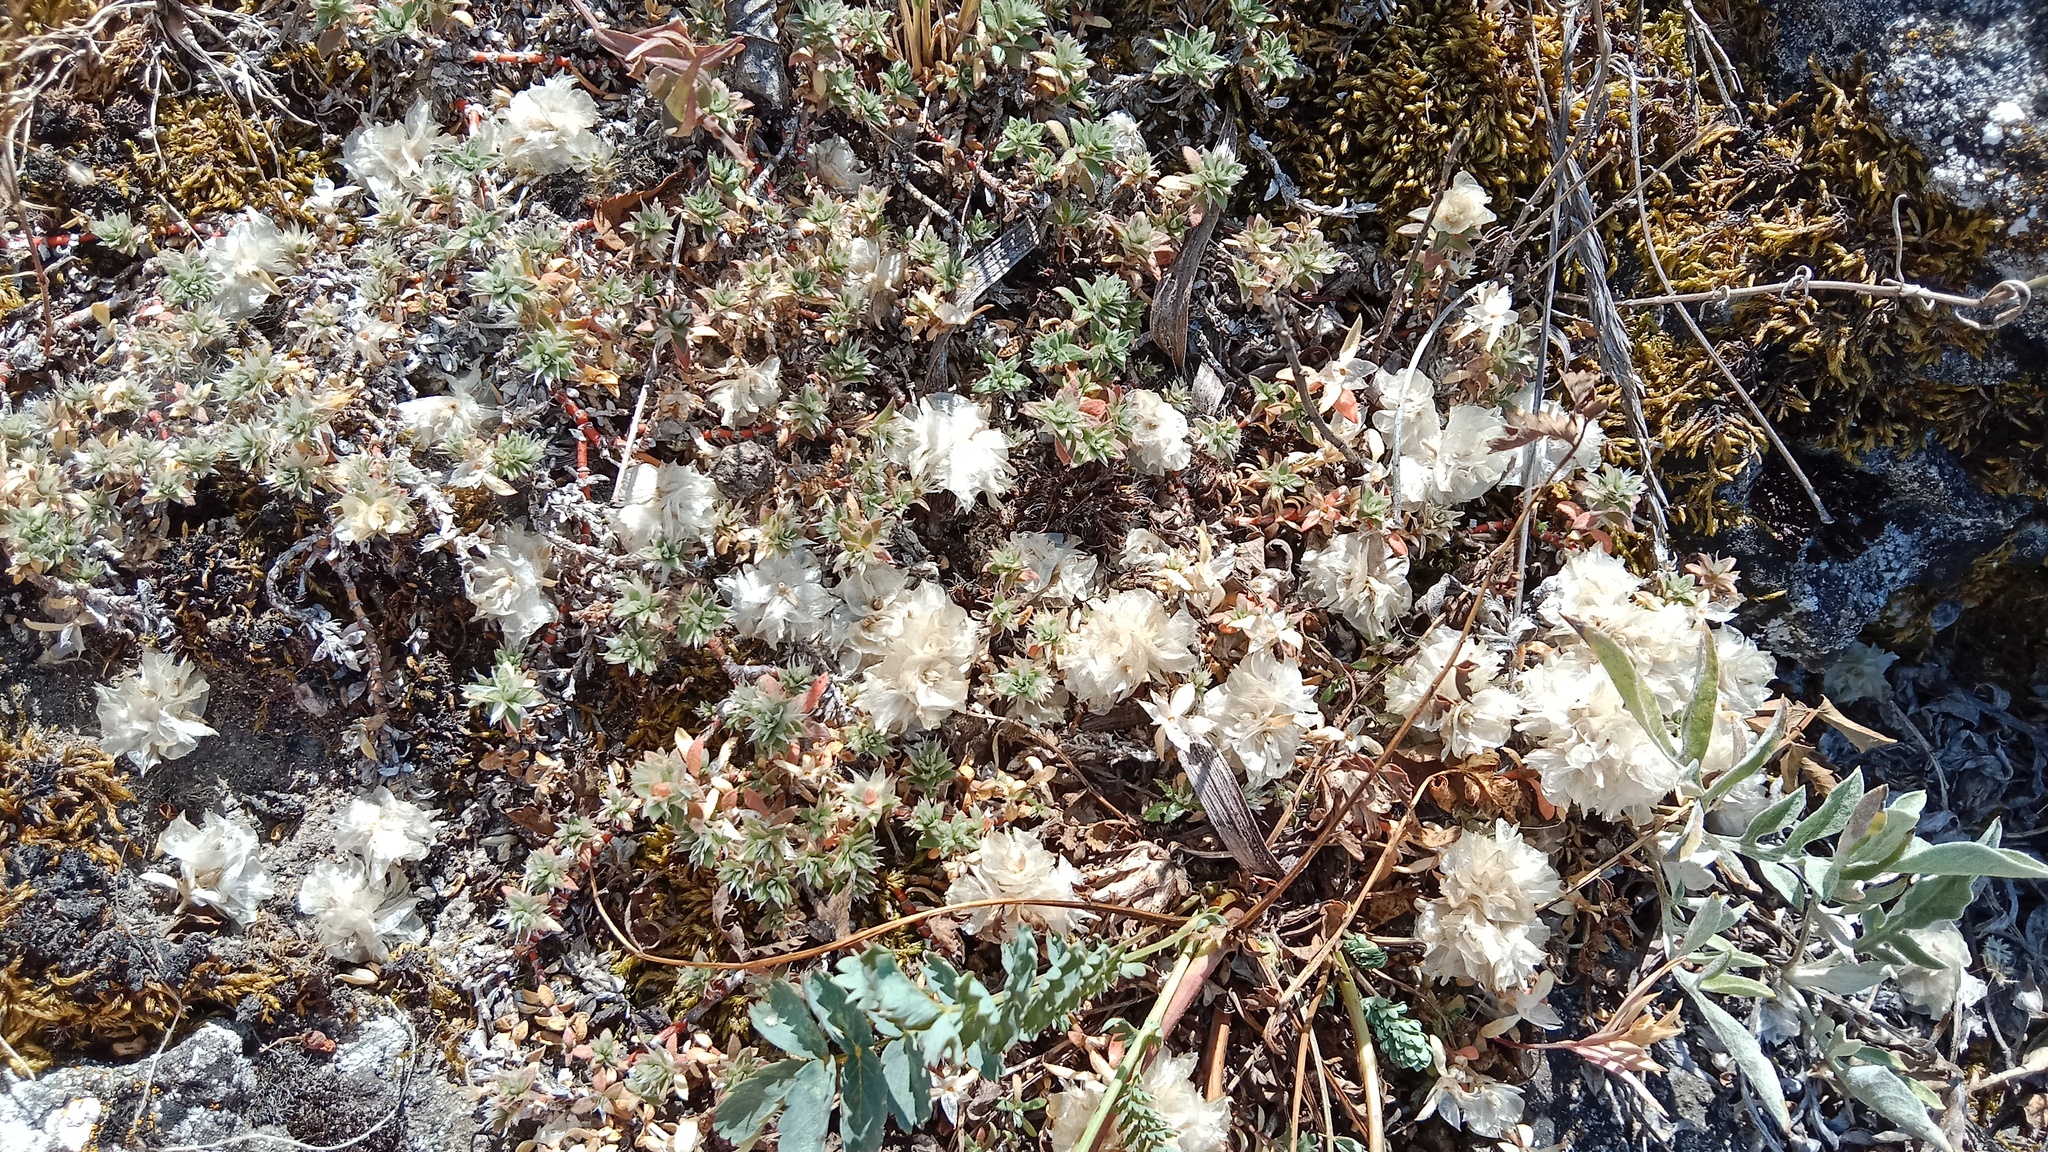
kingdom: Plantae
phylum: Tracheophyta
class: Magnoliopsida
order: Caryophyllales
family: Caryophyllaceae
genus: Paronychia
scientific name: Paronychia cephalotes
